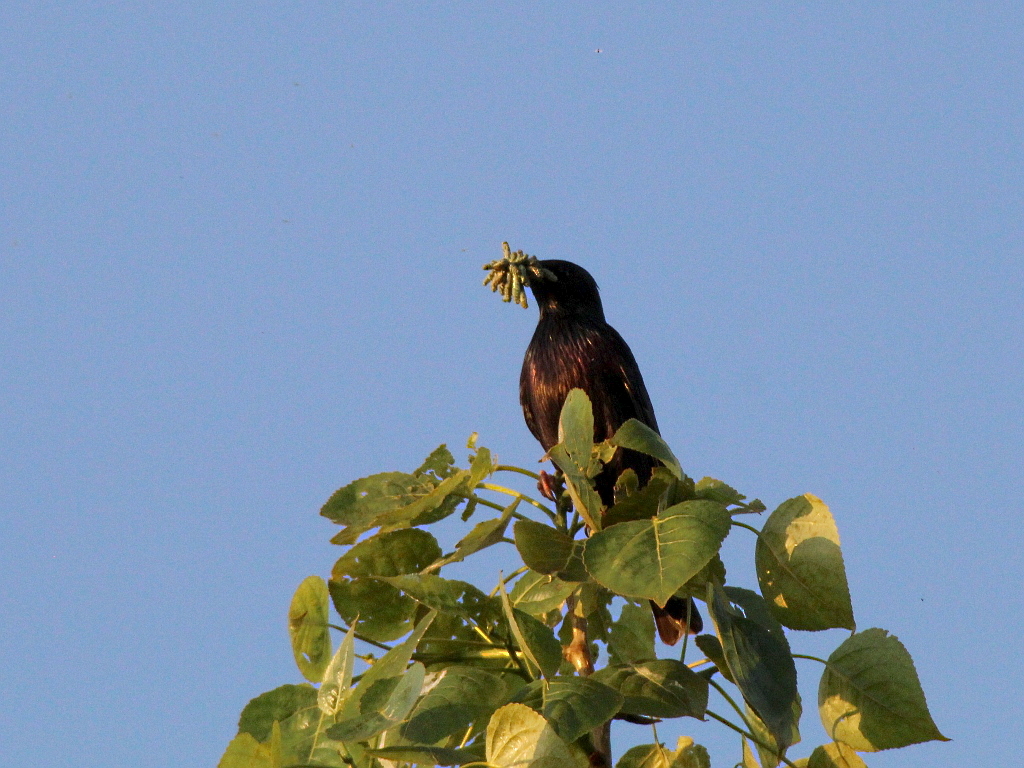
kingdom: Animalia
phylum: Chordata
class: Aves
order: Passeriformes
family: Sturnidae
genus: Sturnus
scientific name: Sturnus vulgaris
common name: Common starling
